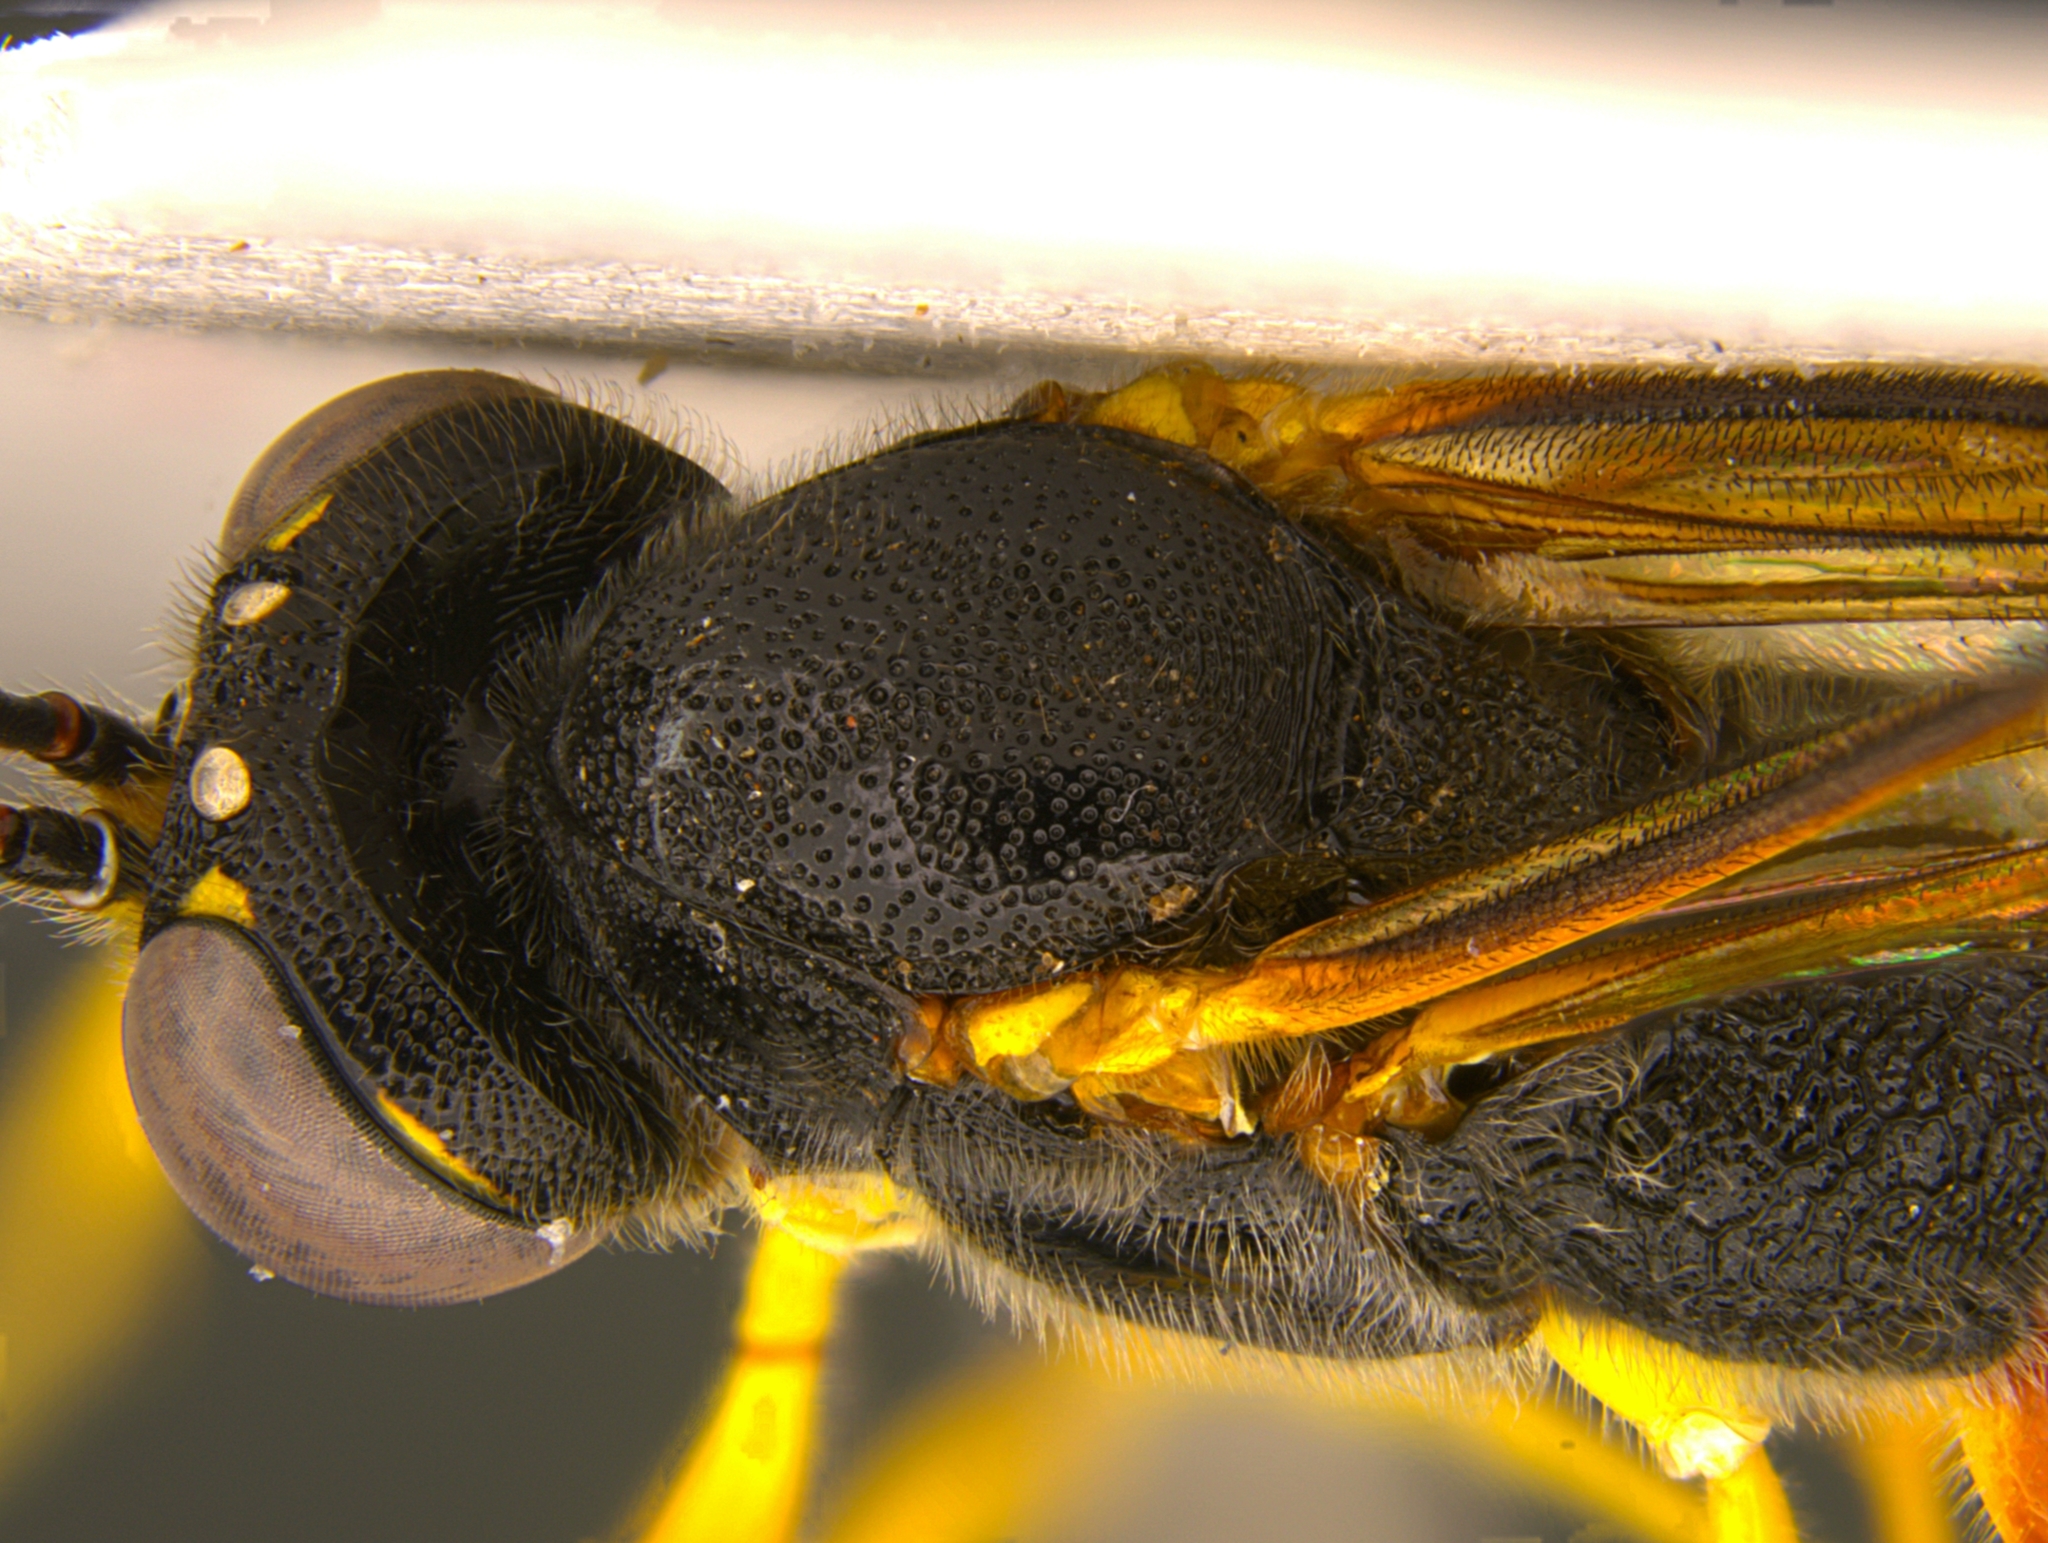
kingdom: Animalia
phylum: Arthropoda
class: Insecta
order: Hymenoptera
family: Ichneumonidae
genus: Heteropelma
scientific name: Heteropelma scaposum
